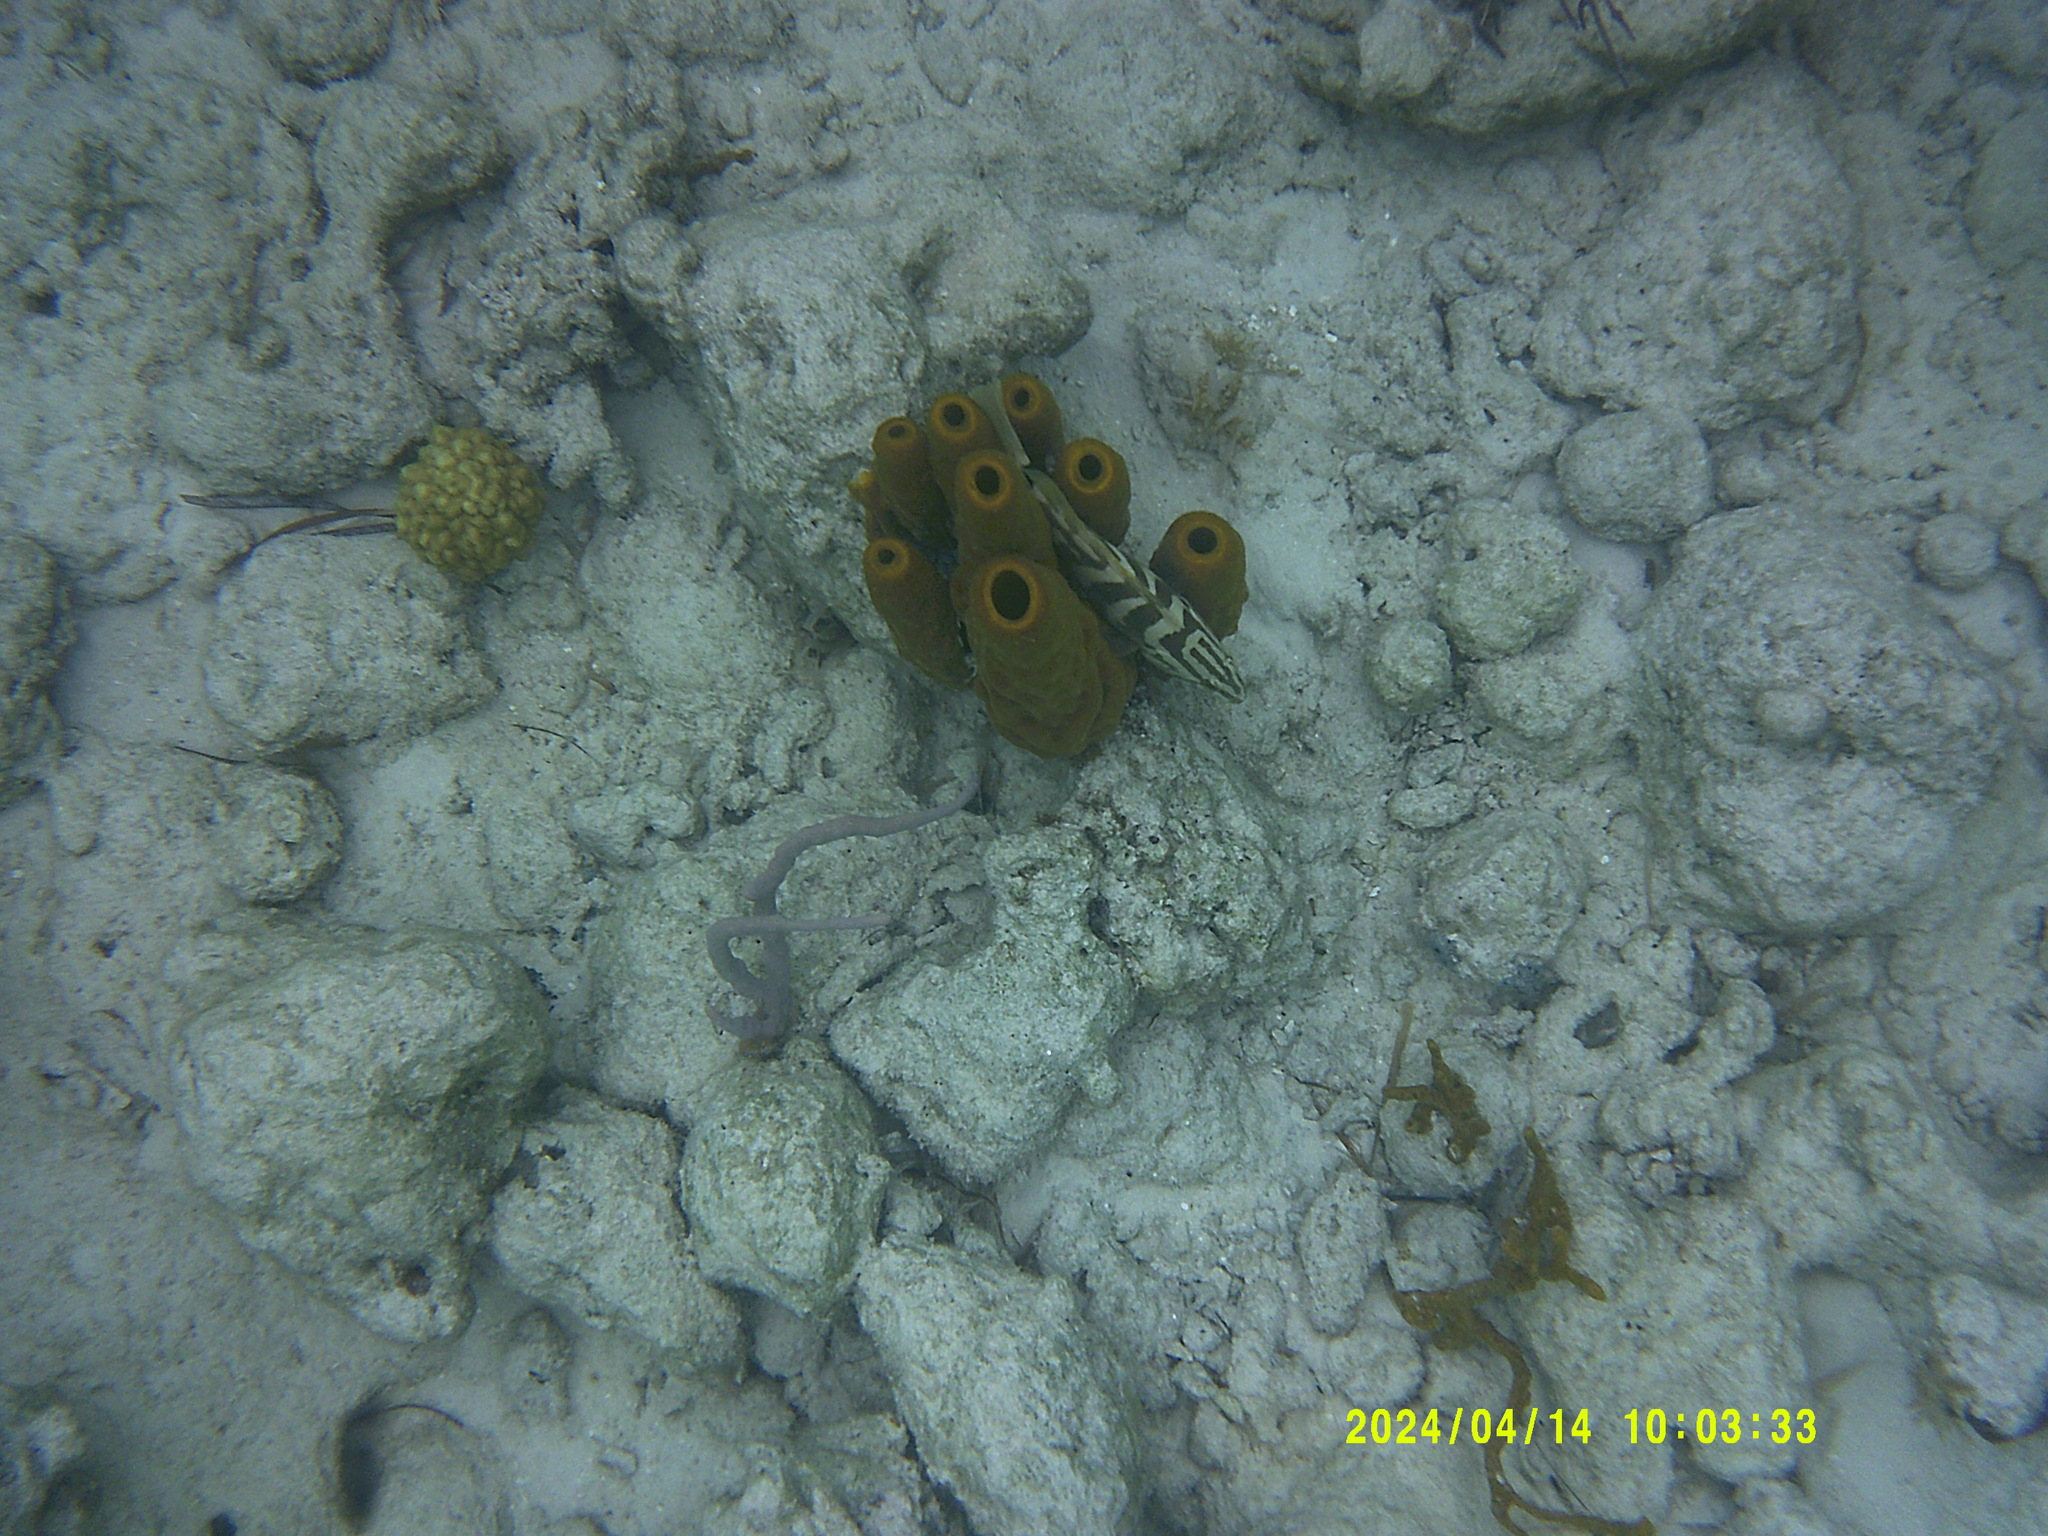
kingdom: Animalia
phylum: Porifera
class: Demospongiae
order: Verongiida
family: Aplysinidae
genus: Aplysina
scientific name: Aplysina fistularis
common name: Candle sponge
